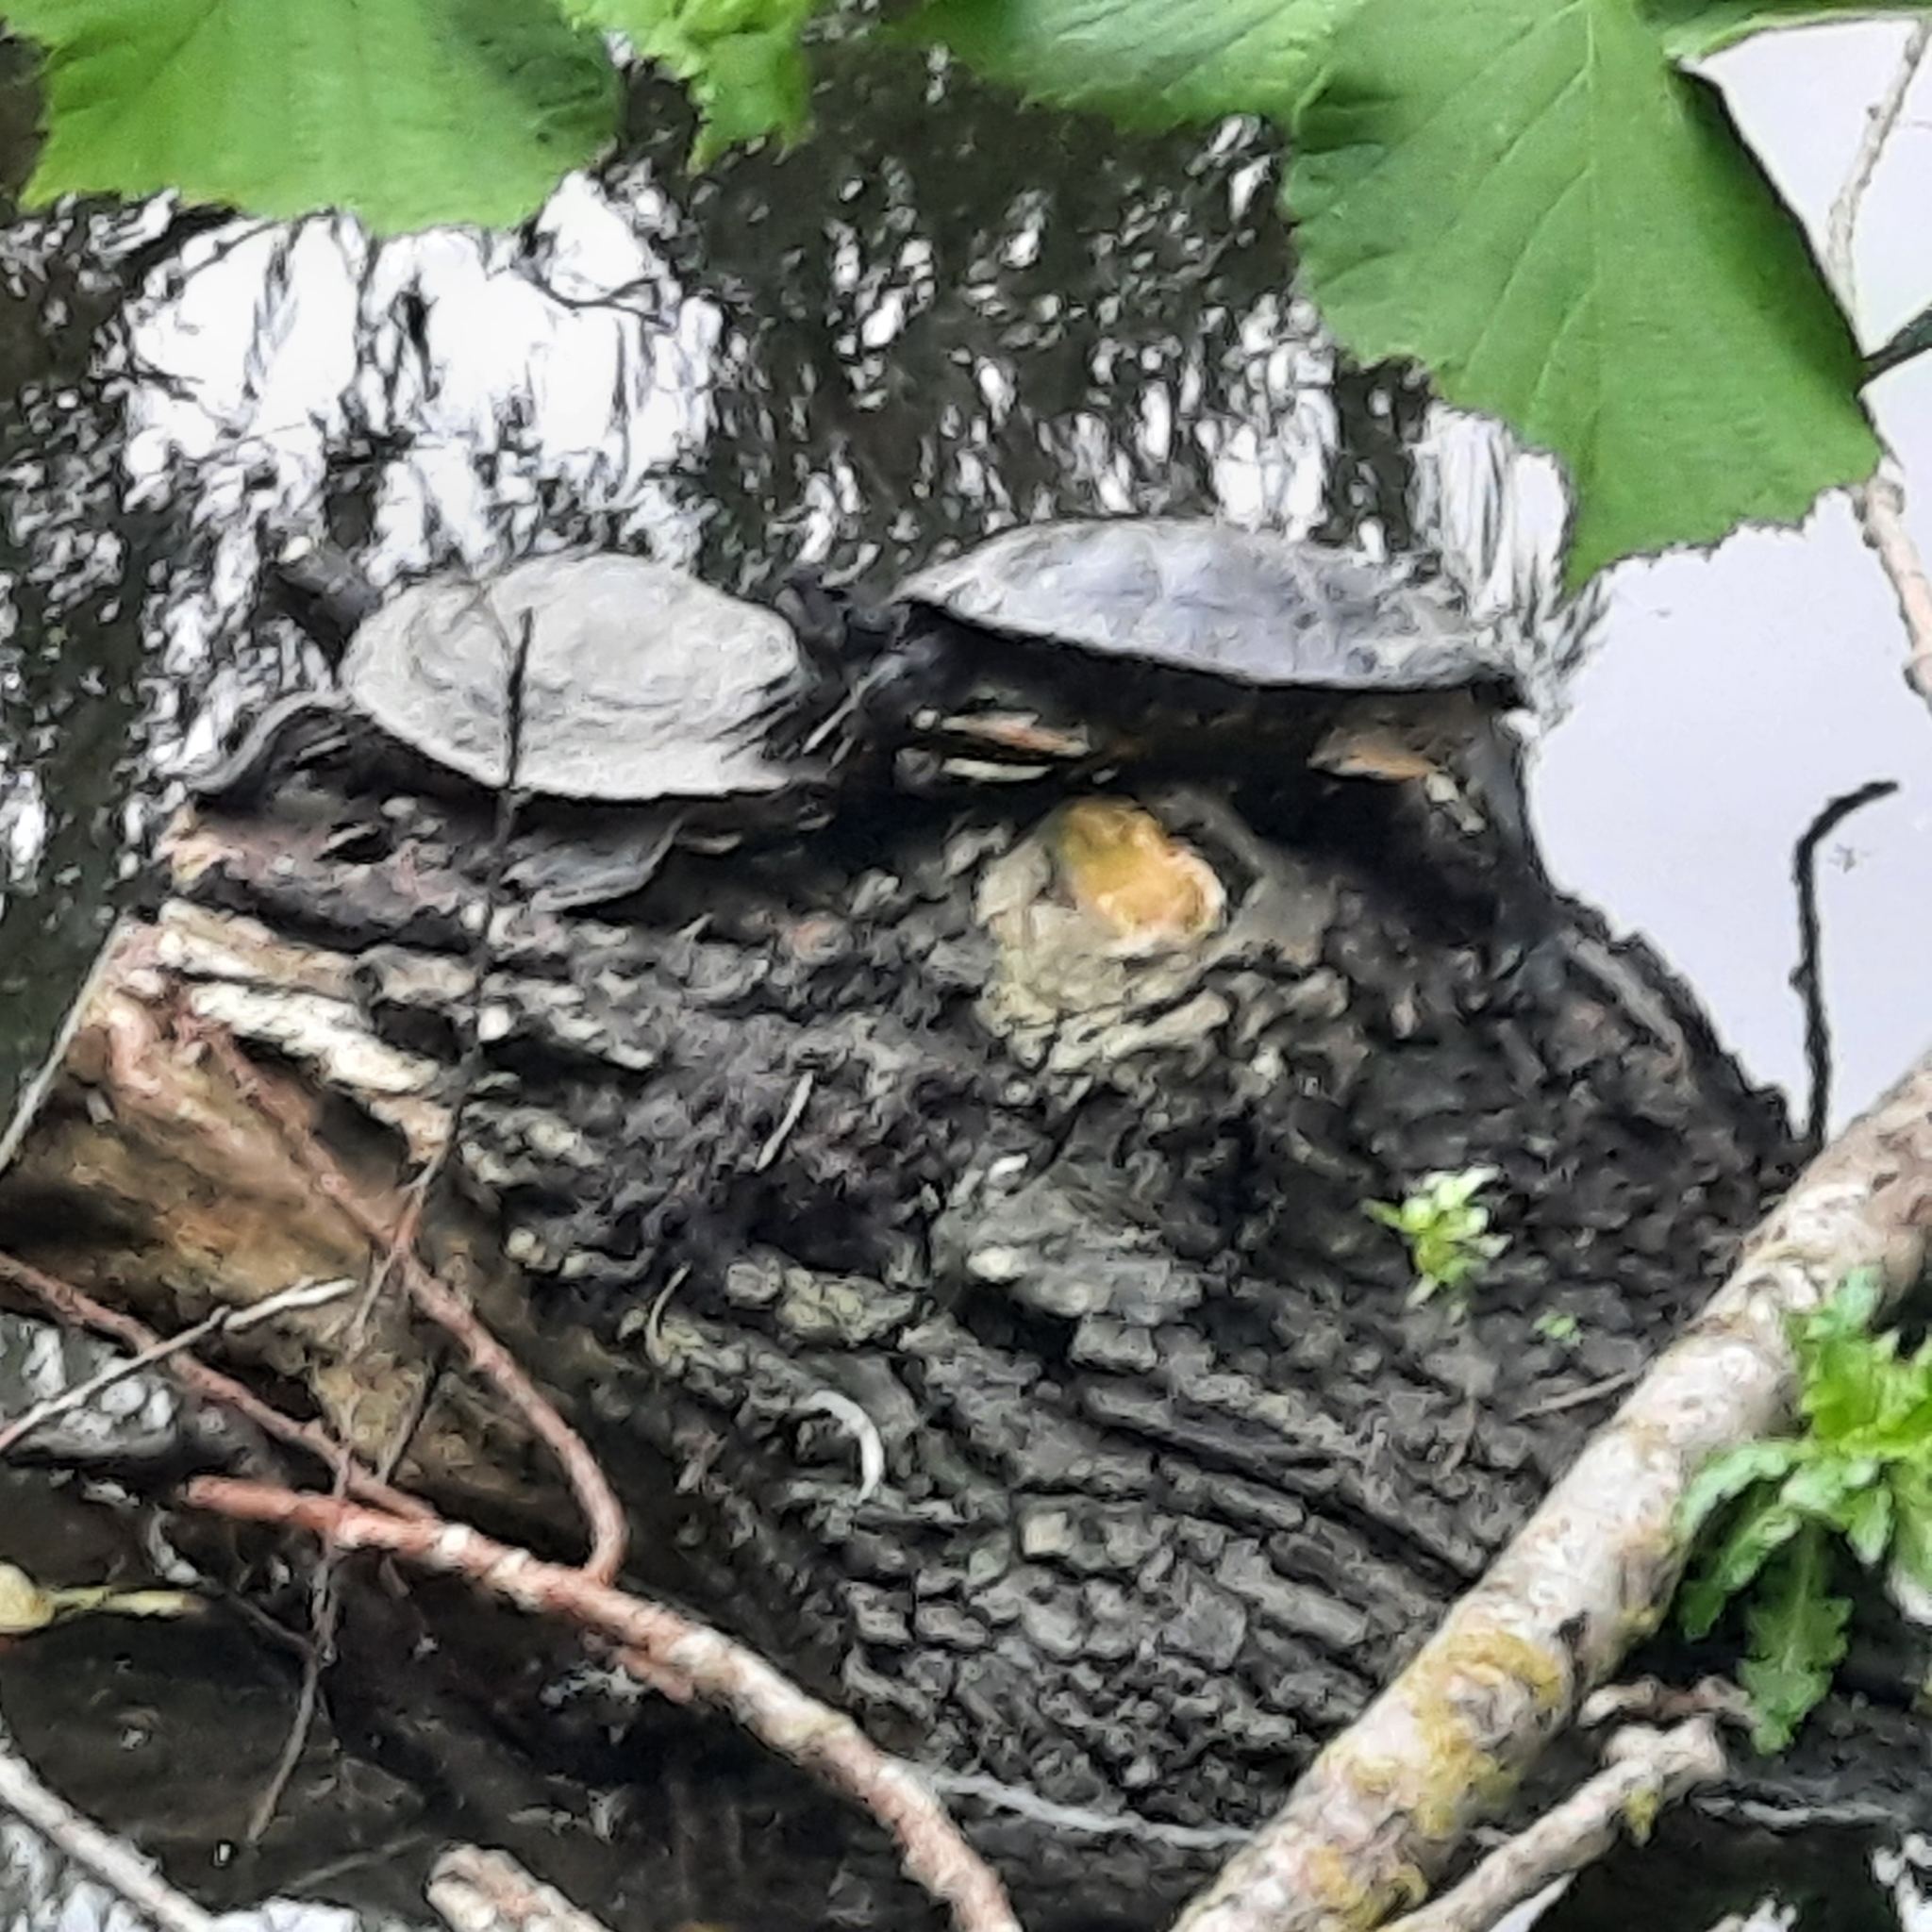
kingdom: Animalia
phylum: Chordata
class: Testudines
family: Emydidae
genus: Graptemys
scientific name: Graptemys pseudogeographica
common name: False map turtle
